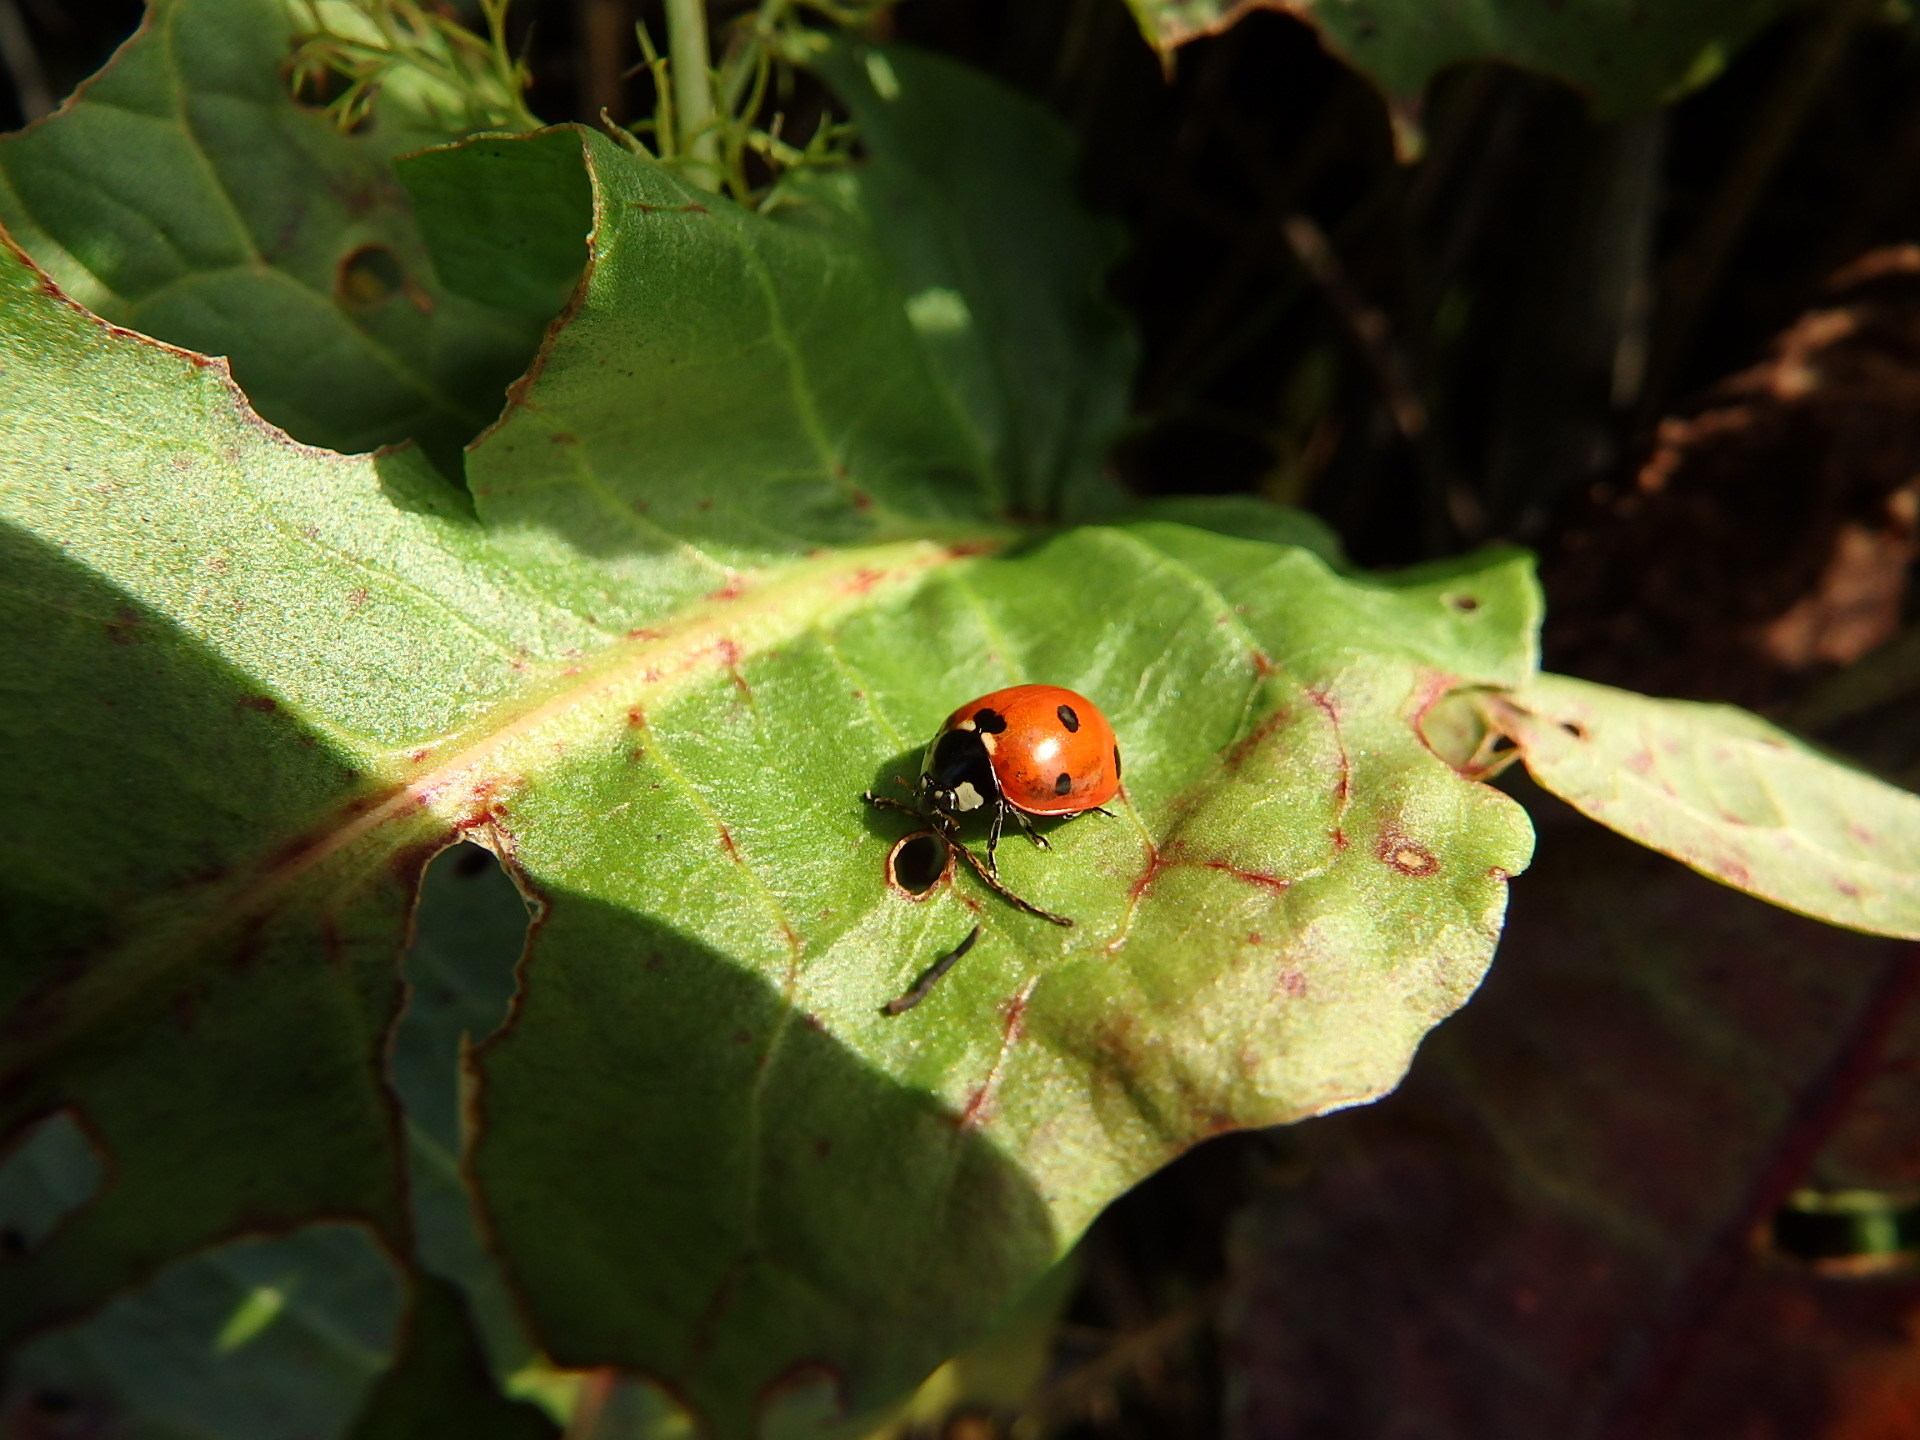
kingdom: Animalia
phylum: Arthropoda
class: Insecta
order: Coleoptera
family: Coccinellidae
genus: Coccinella
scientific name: Coccinella septempunctata
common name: Sevenspotted lady beetle
